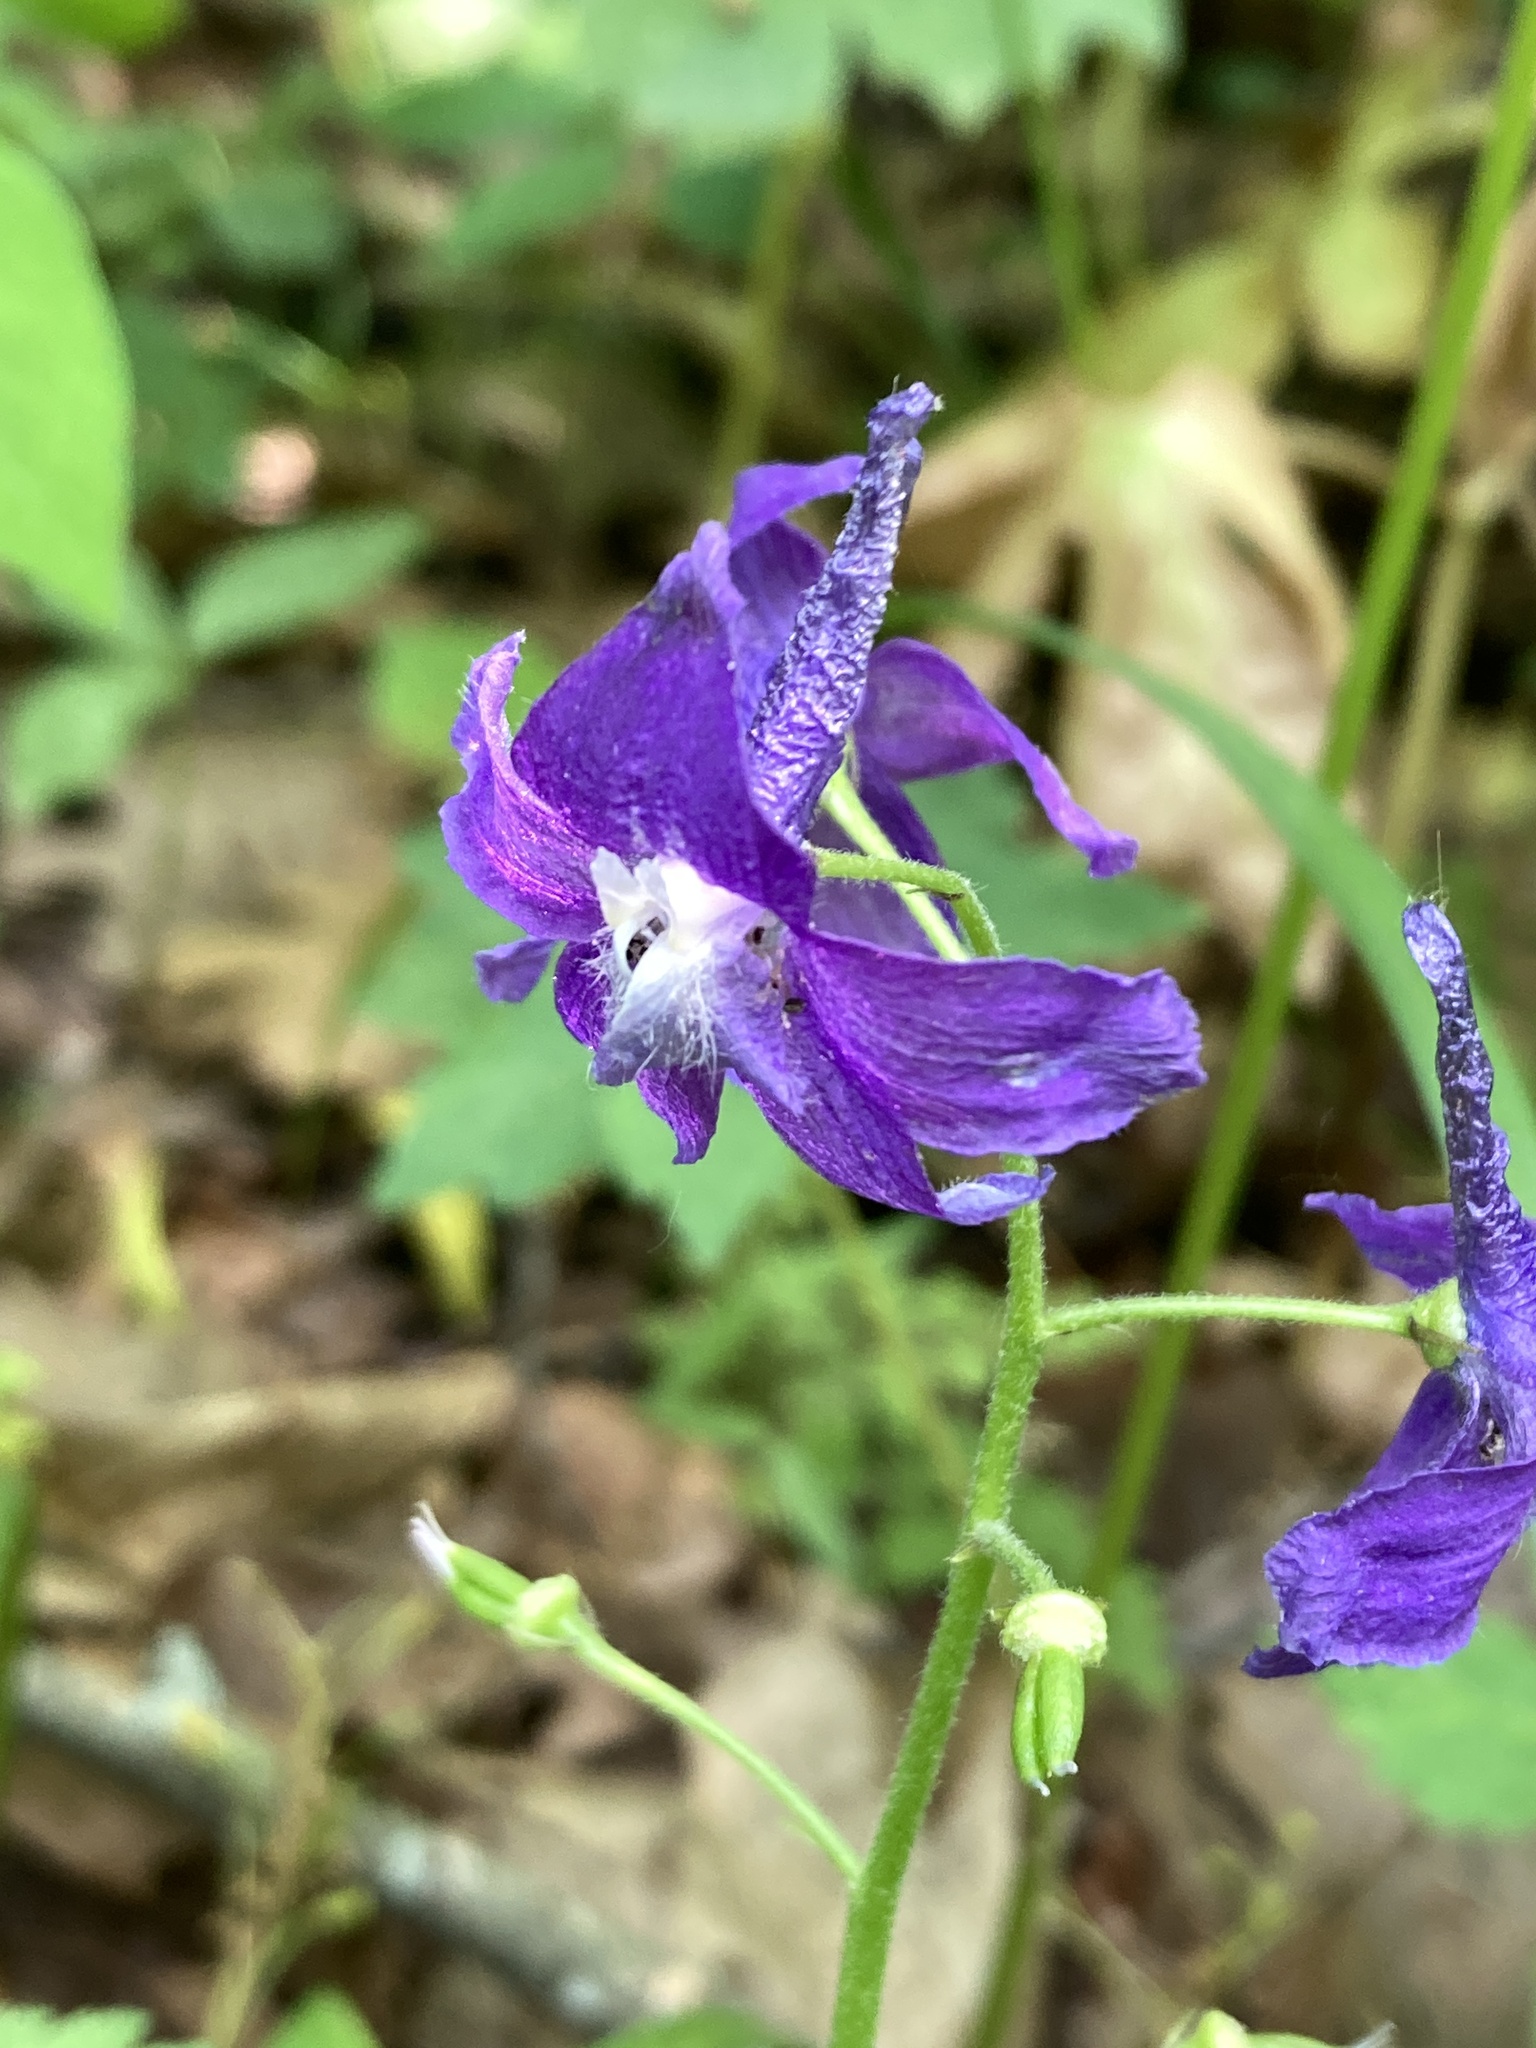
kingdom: Plantae
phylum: Tracheophyta
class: Magnoliopsida
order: Ranunculales
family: Ranunculaceae
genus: Delphinium
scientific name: Delphinium tricorne
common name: Dwarf larkspur
